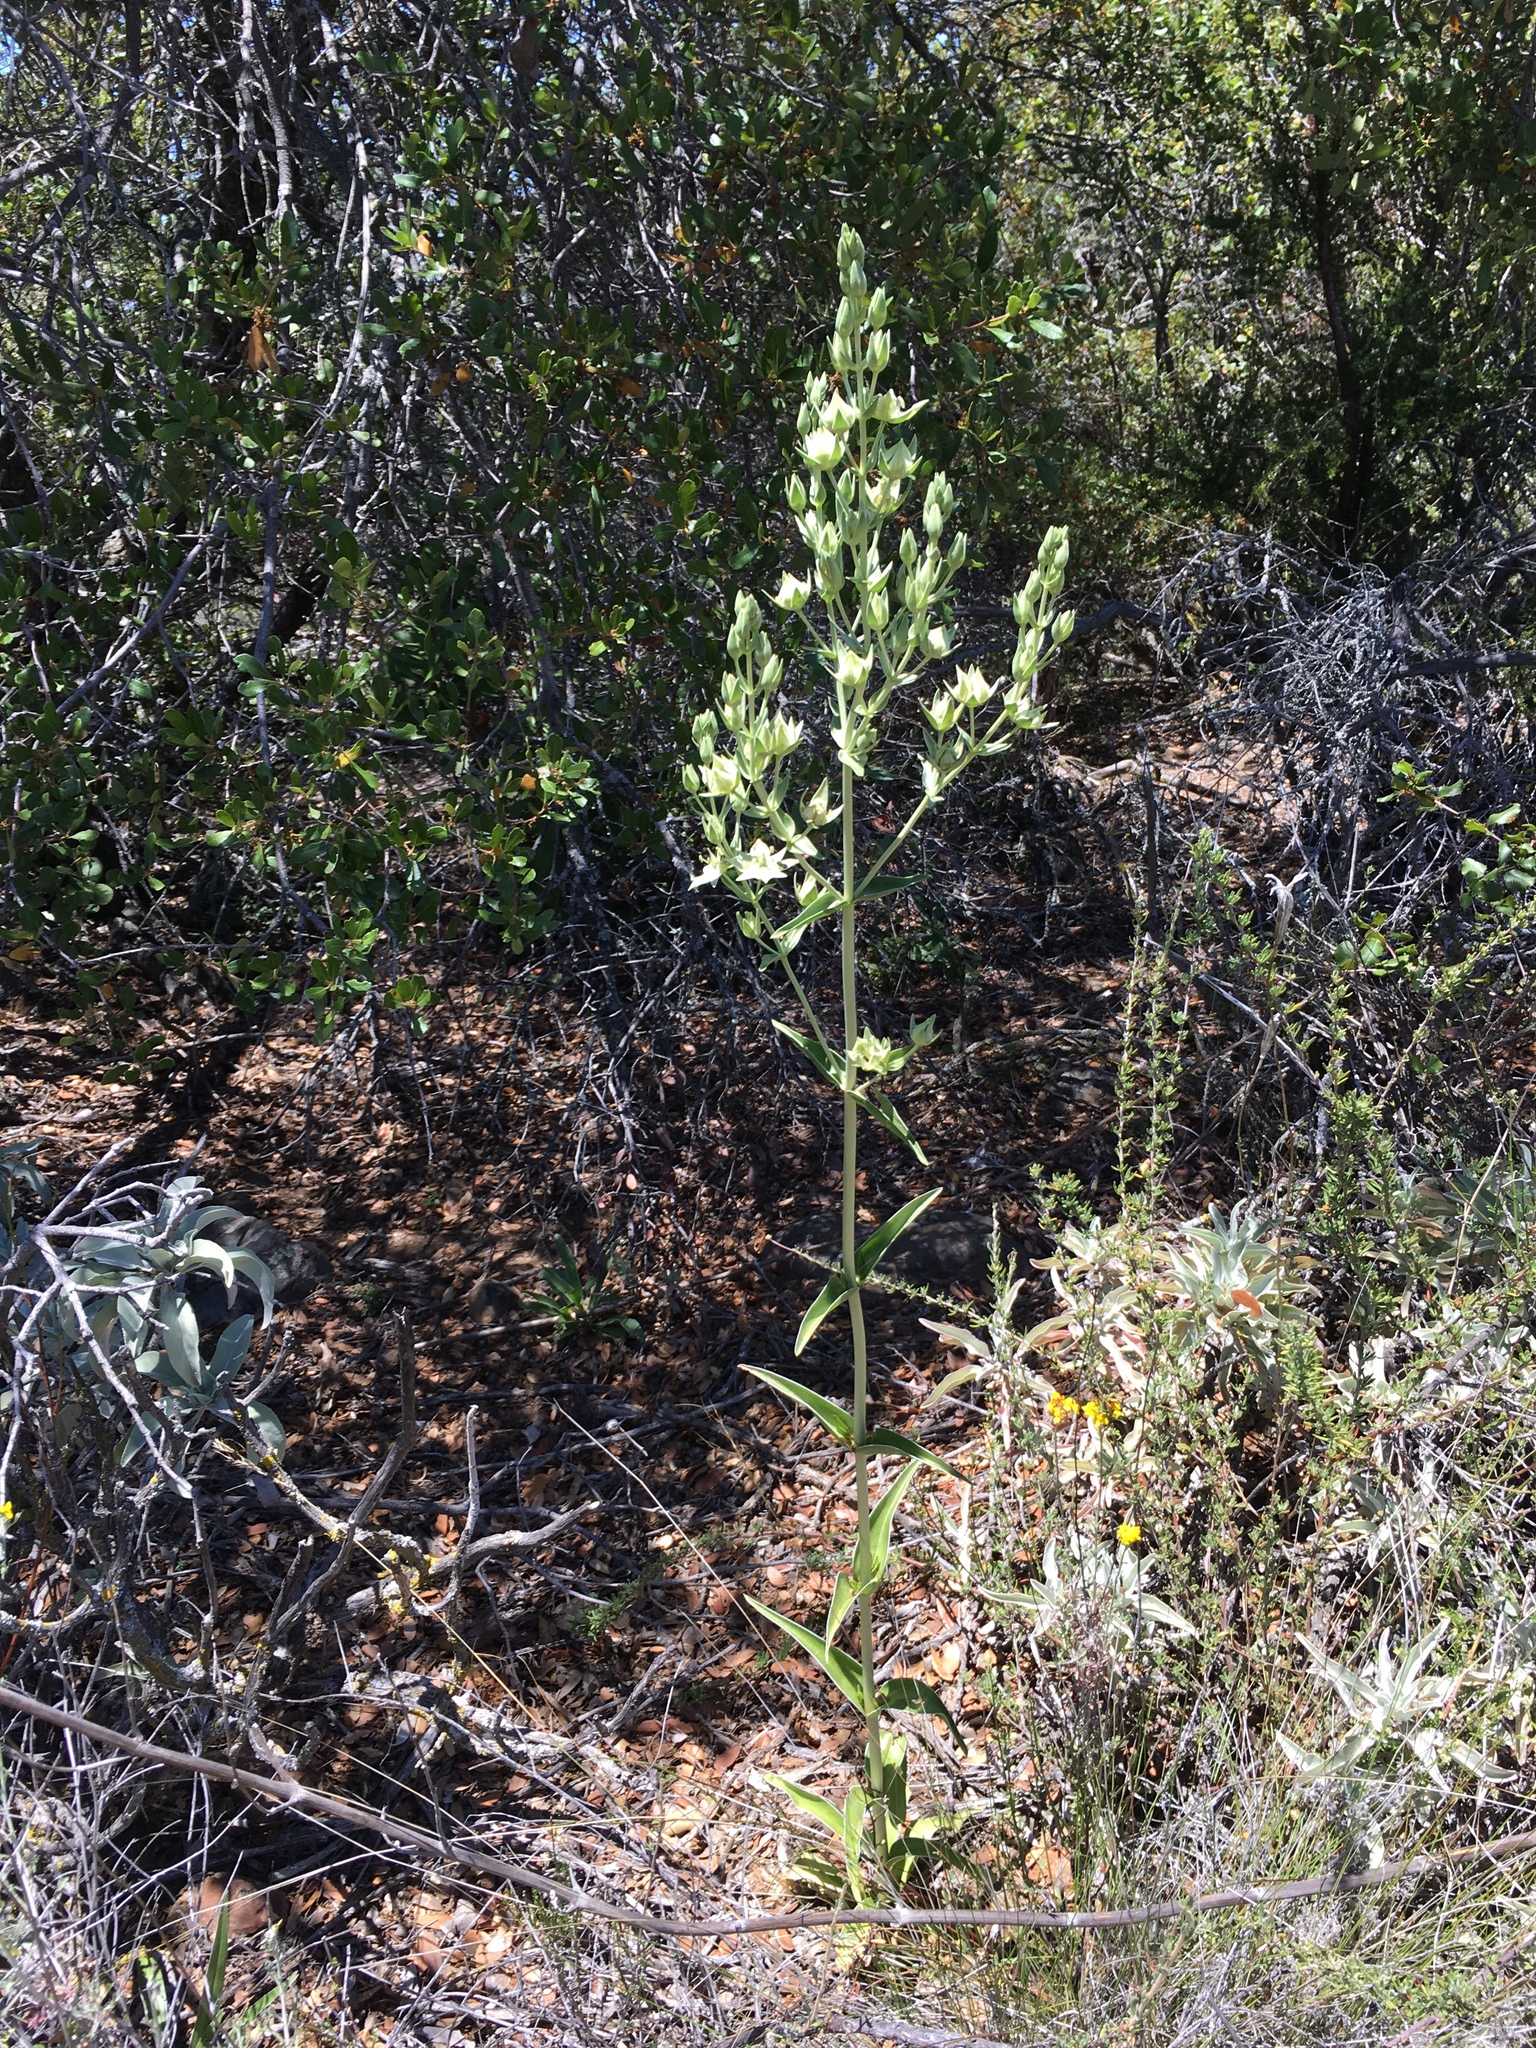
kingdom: Plantae
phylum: Tracheophyta
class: Magnoliopsida
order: Gentianales
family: Gentianaceae
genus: Frasera
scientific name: Frasera parryi
